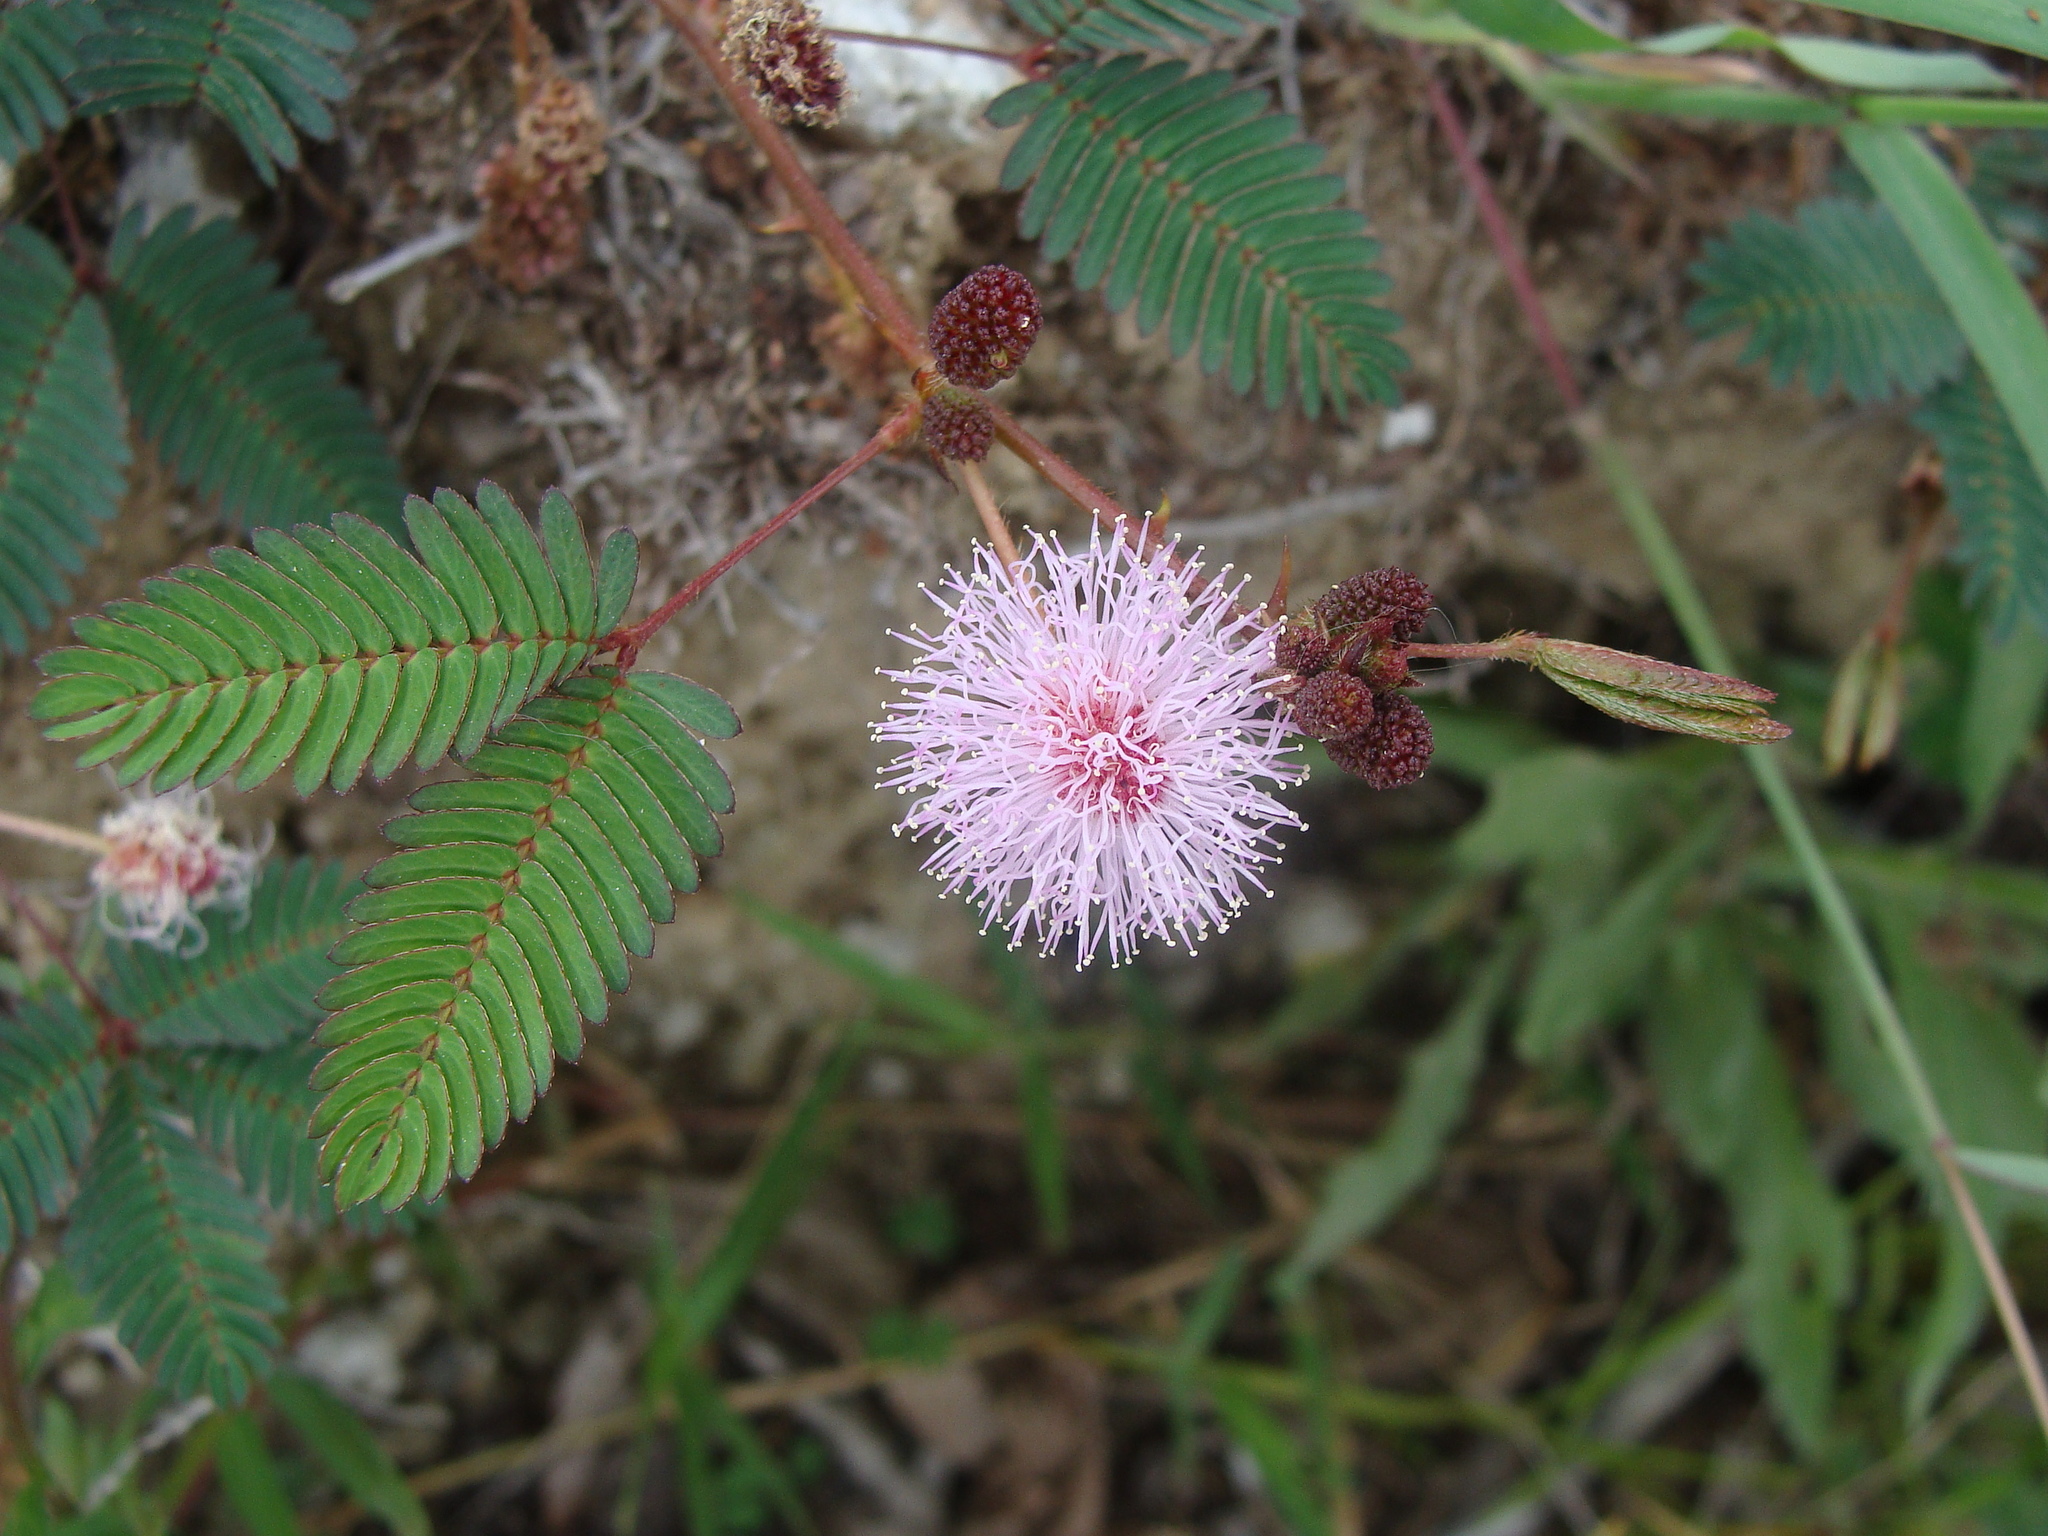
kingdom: Plantae
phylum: Tracheophyta
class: Magnoliopsida
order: Fabales
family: Fabaceae
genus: Mimosa
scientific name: Mimosa pudica
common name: Sensitive plant
